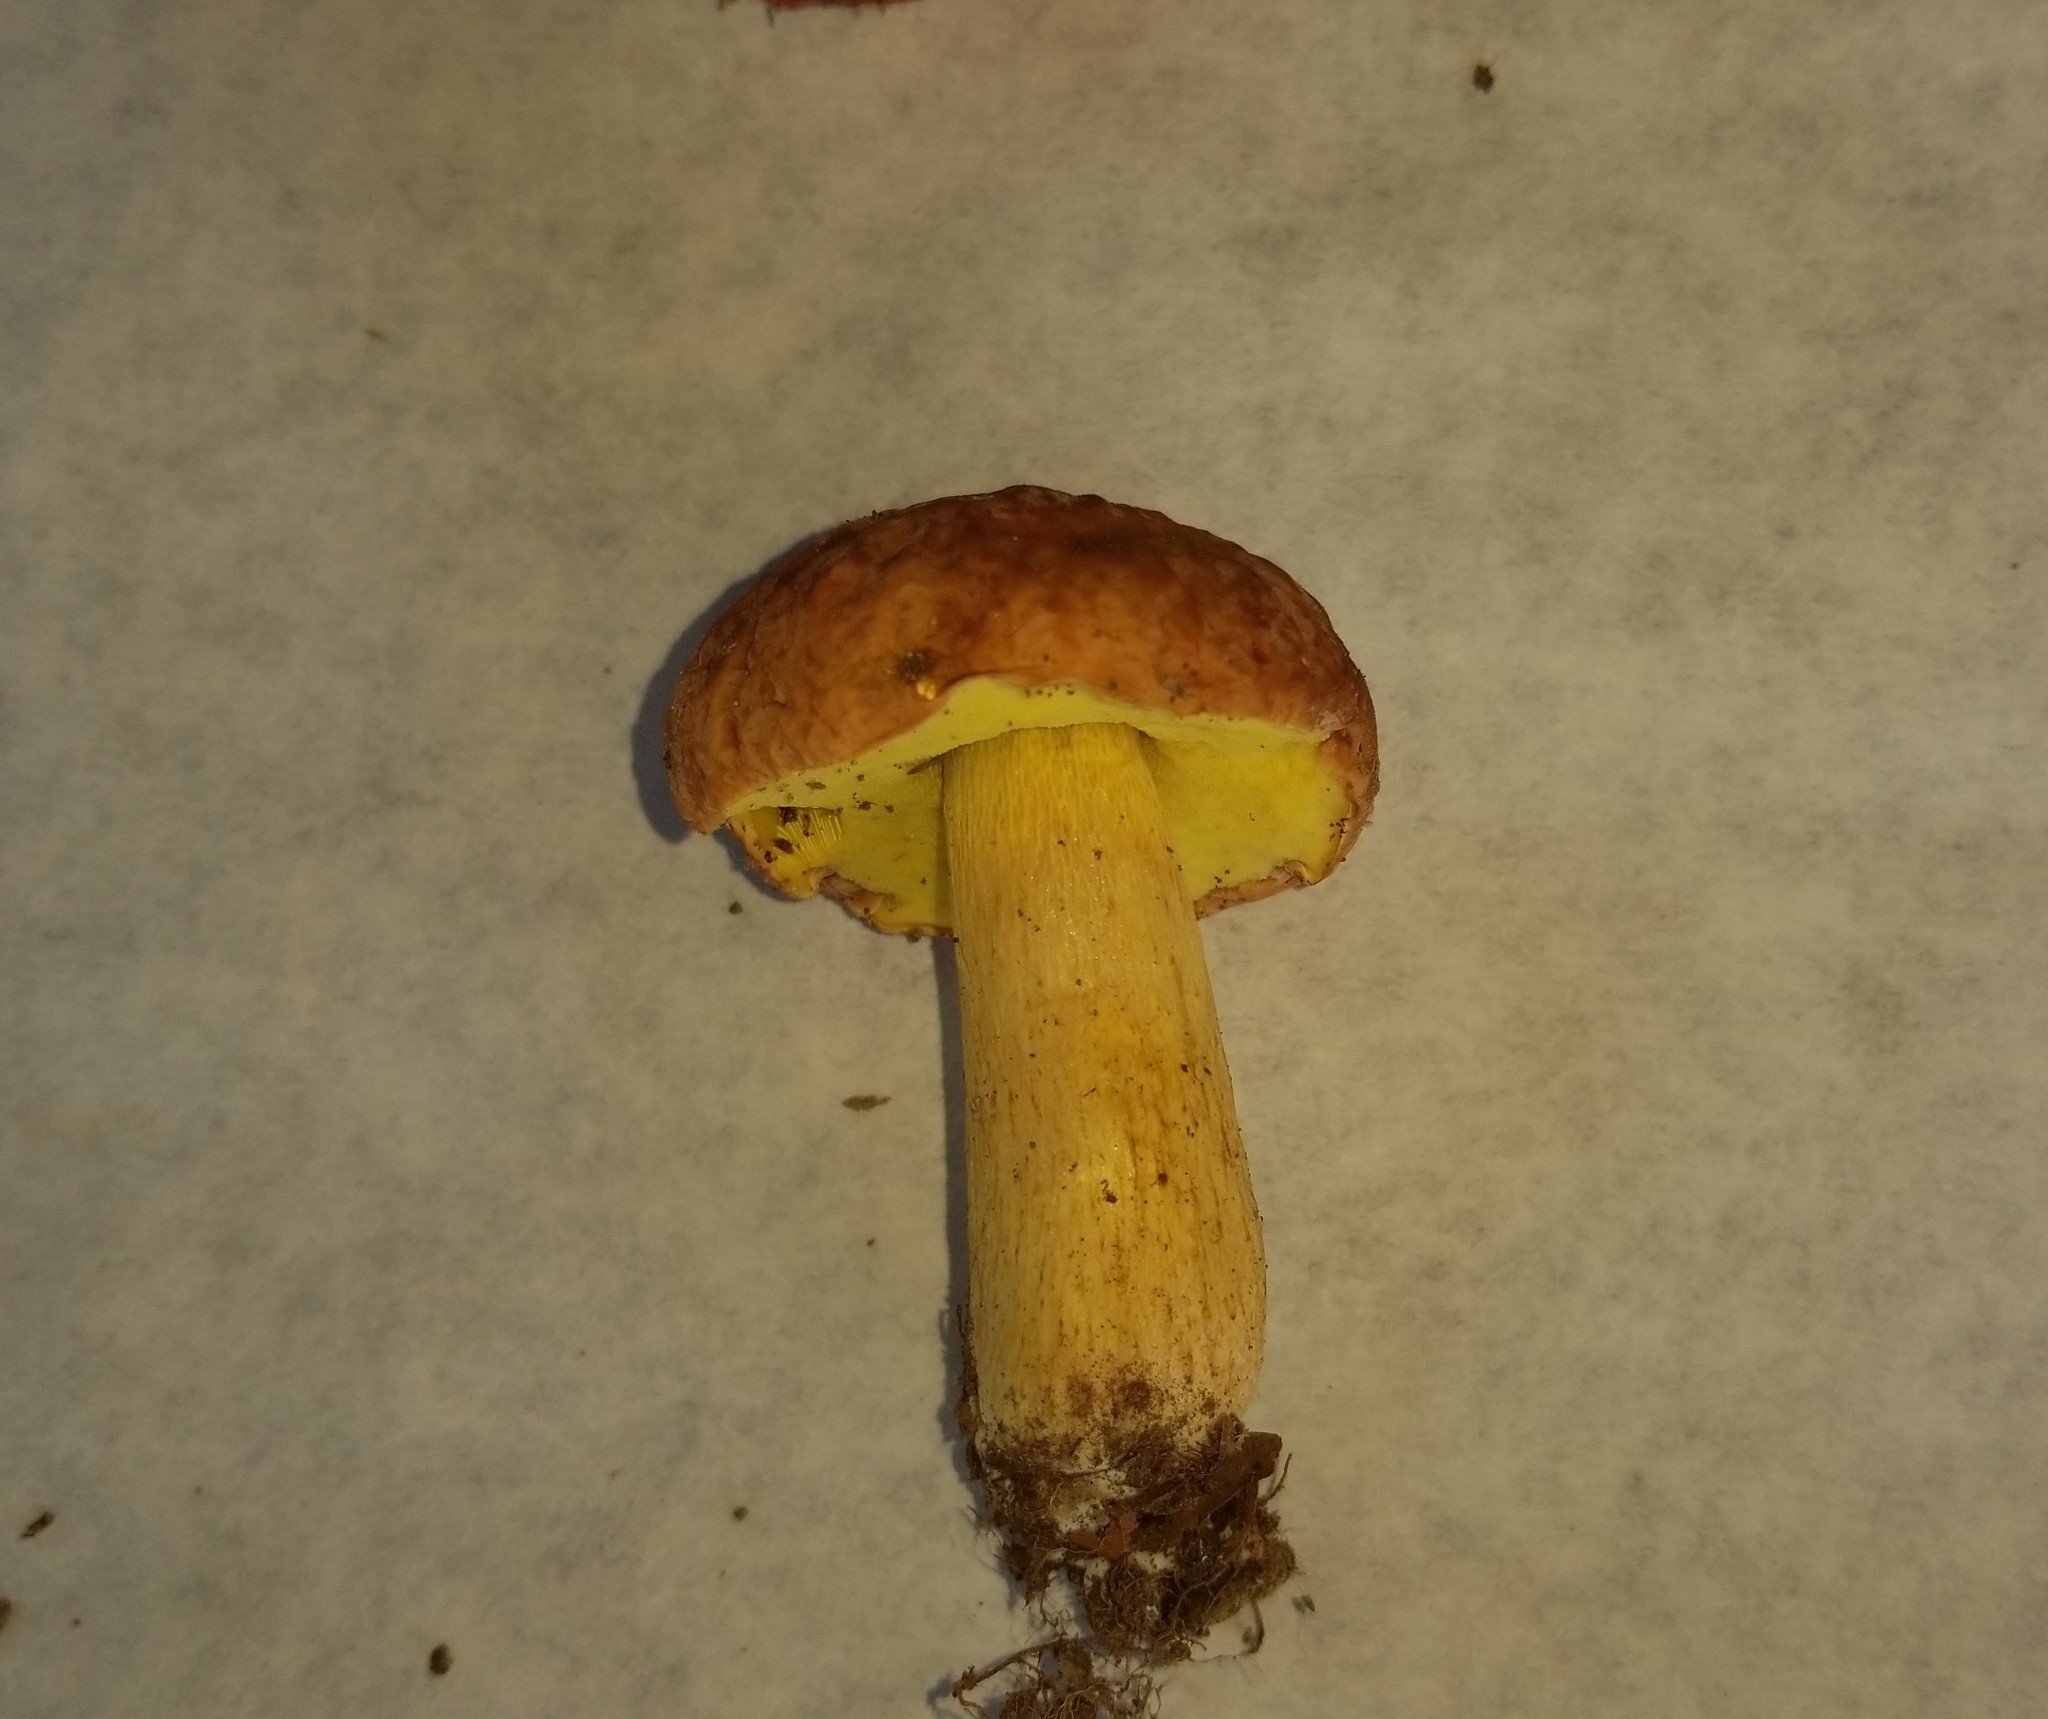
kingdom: Fungi
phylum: Basidiomycota
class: Agaricomycetes
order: Boletales
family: Boletaceae
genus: Hemileccinum
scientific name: Hemileccinum hortonii
